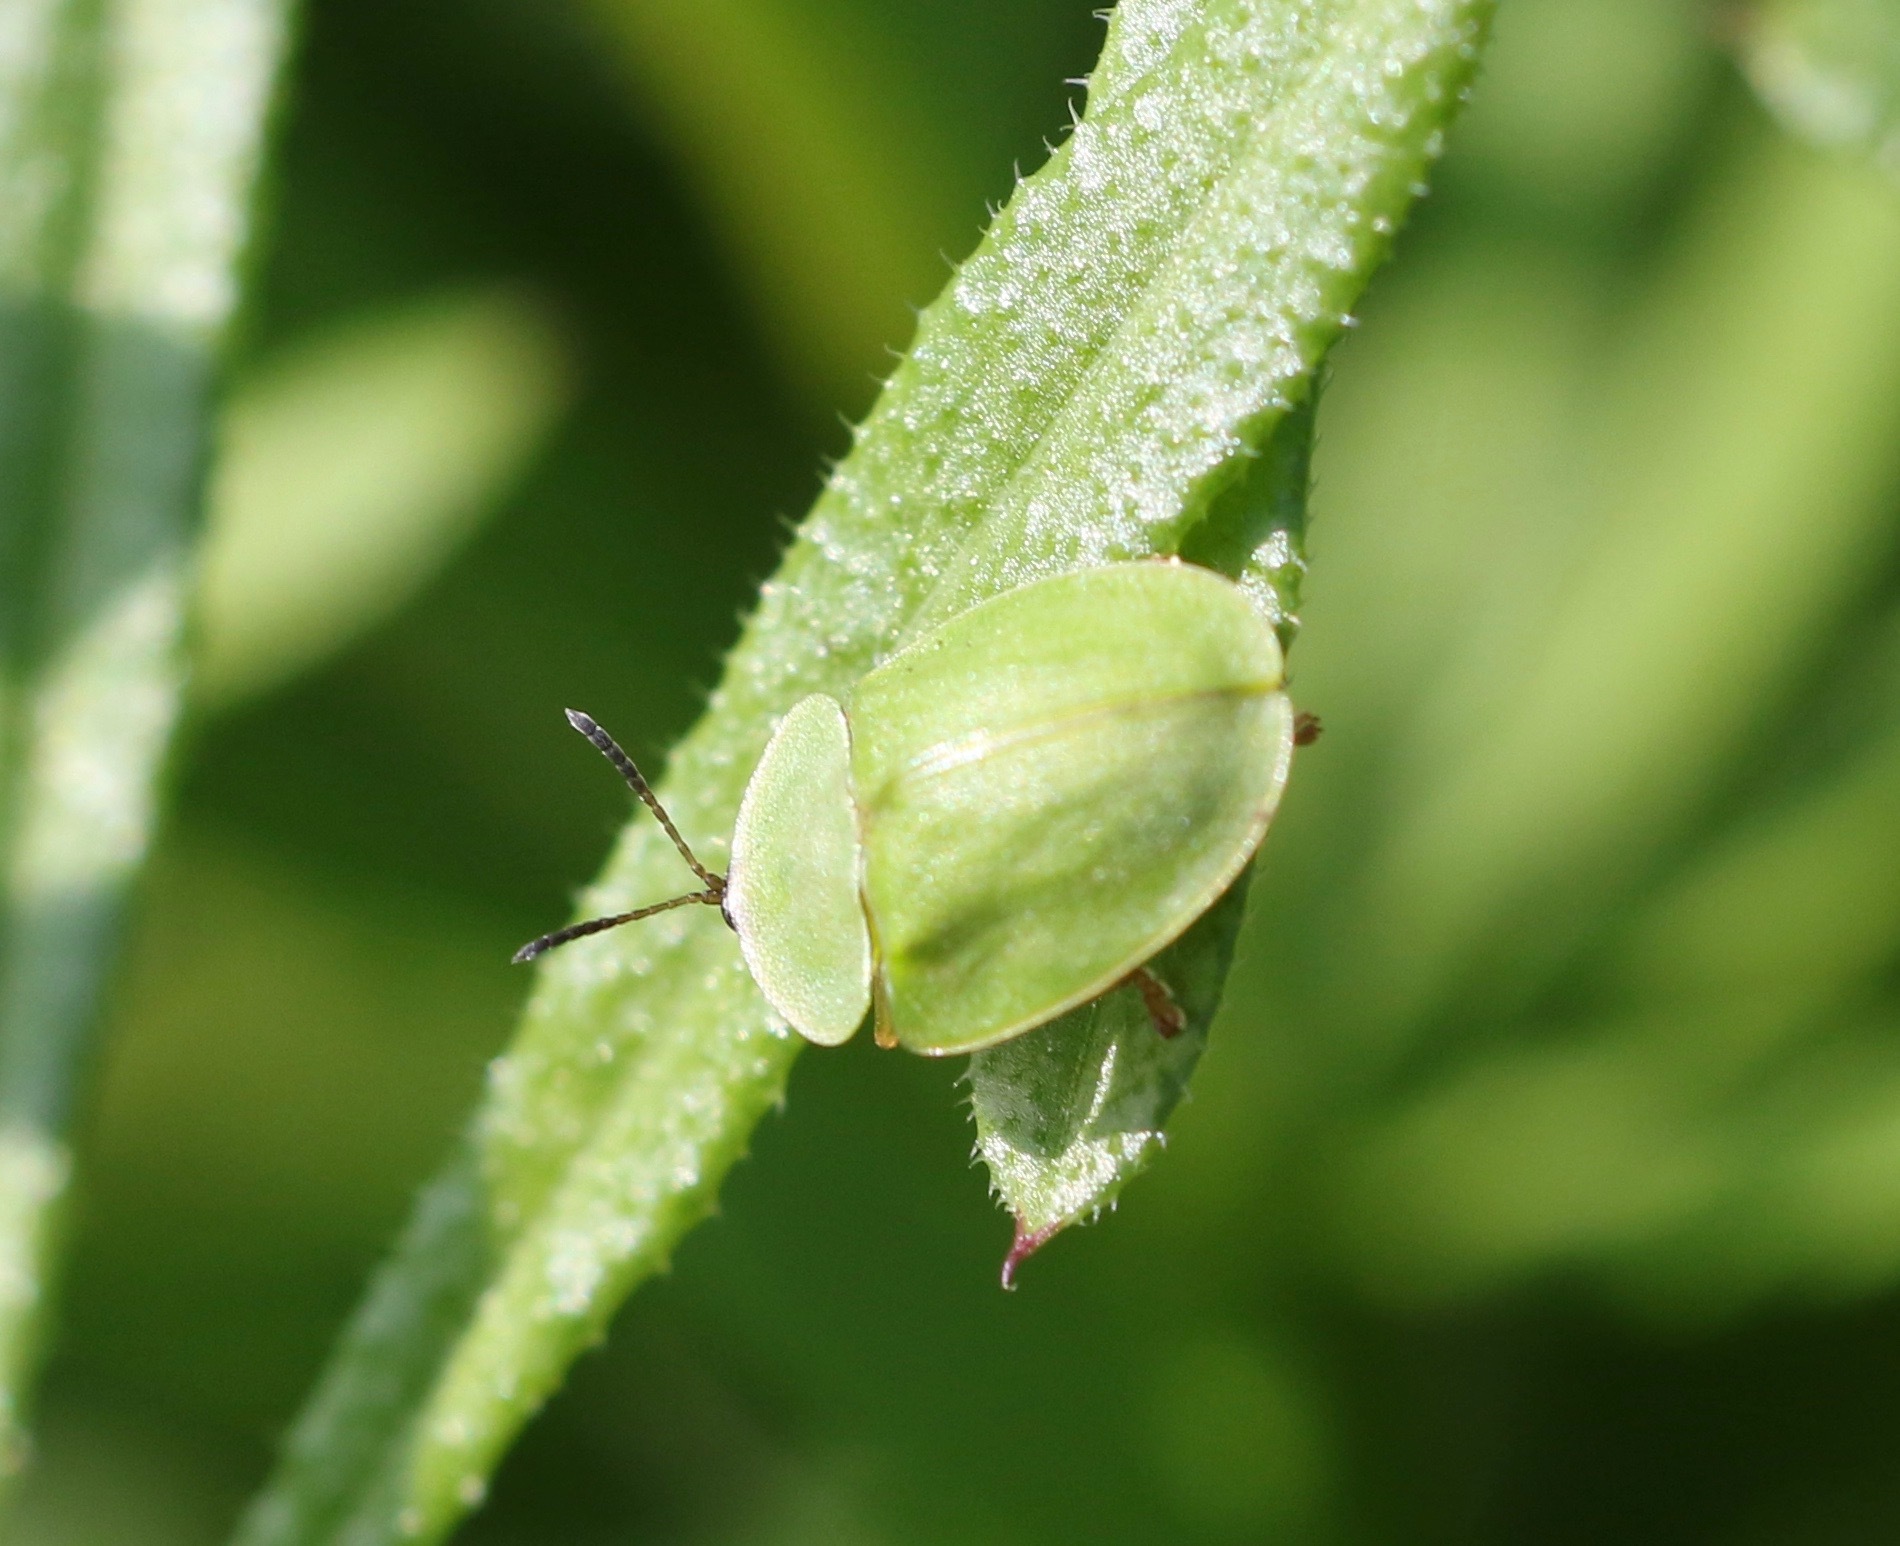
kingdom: Animalia
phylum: Arthropoda
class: Insecta
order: Coleoptera
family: Chrysomelidae
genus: Cassida
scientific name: Cassida viridis
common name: Green tortoise beetle
